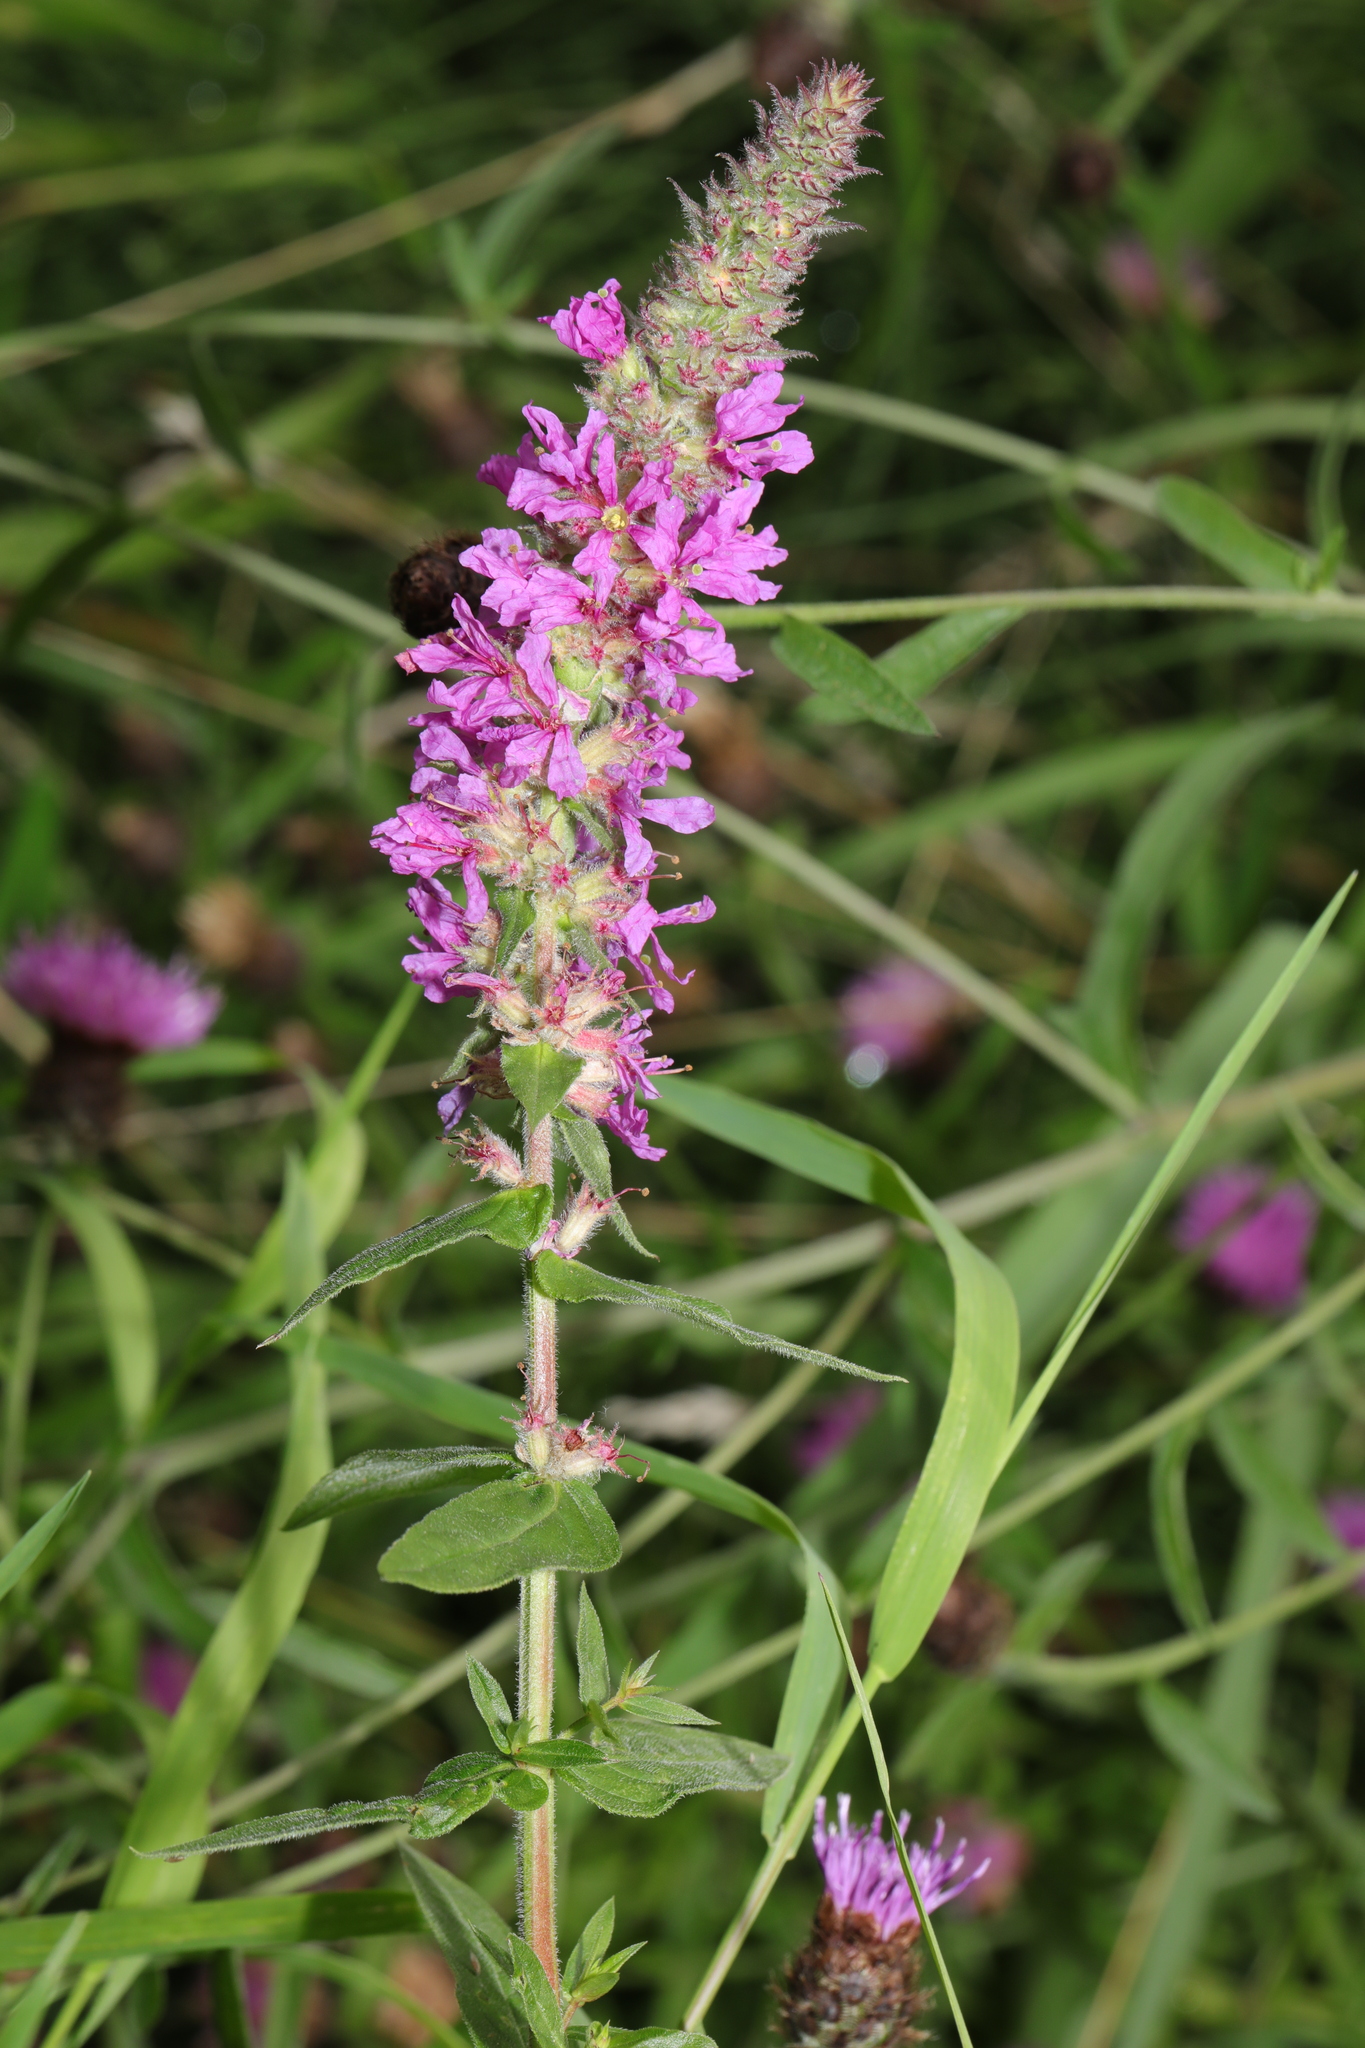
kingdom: Plantae
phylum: Tracheophyta
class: Magnoliopsida
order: Myrtales
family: Lythraceae
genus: Lythrum
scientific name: Lythrum salicaria
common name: Purple loosestrife
